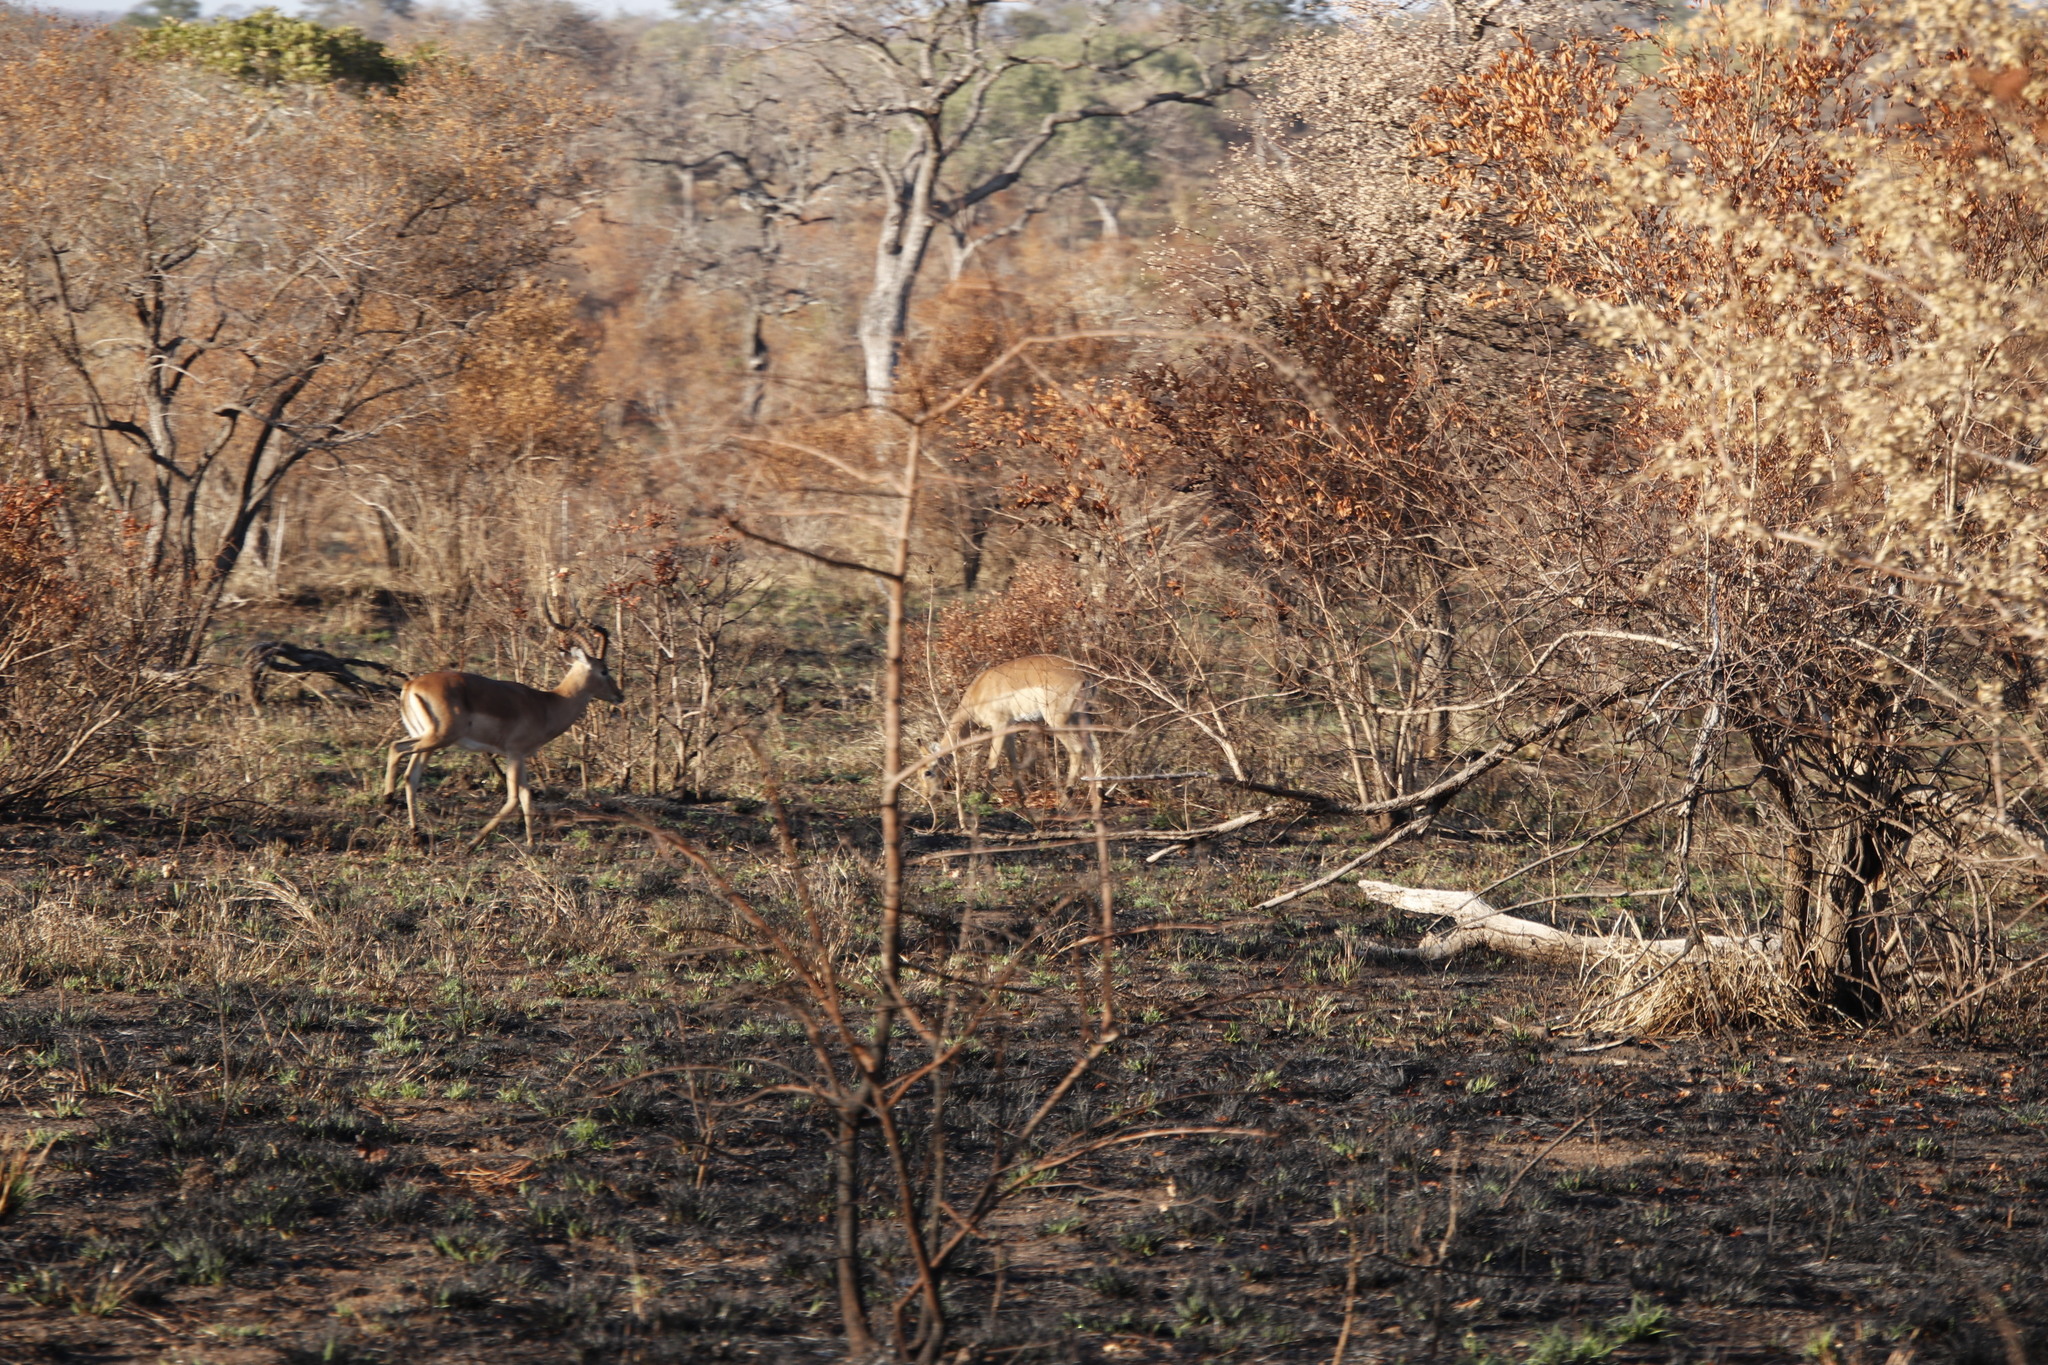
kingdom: Animalia
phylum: Chordata
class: Mammalia
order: Artiodactyla
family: Bovidae
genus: Aepyceros
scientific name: Aepyceros melampus
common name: Impala
